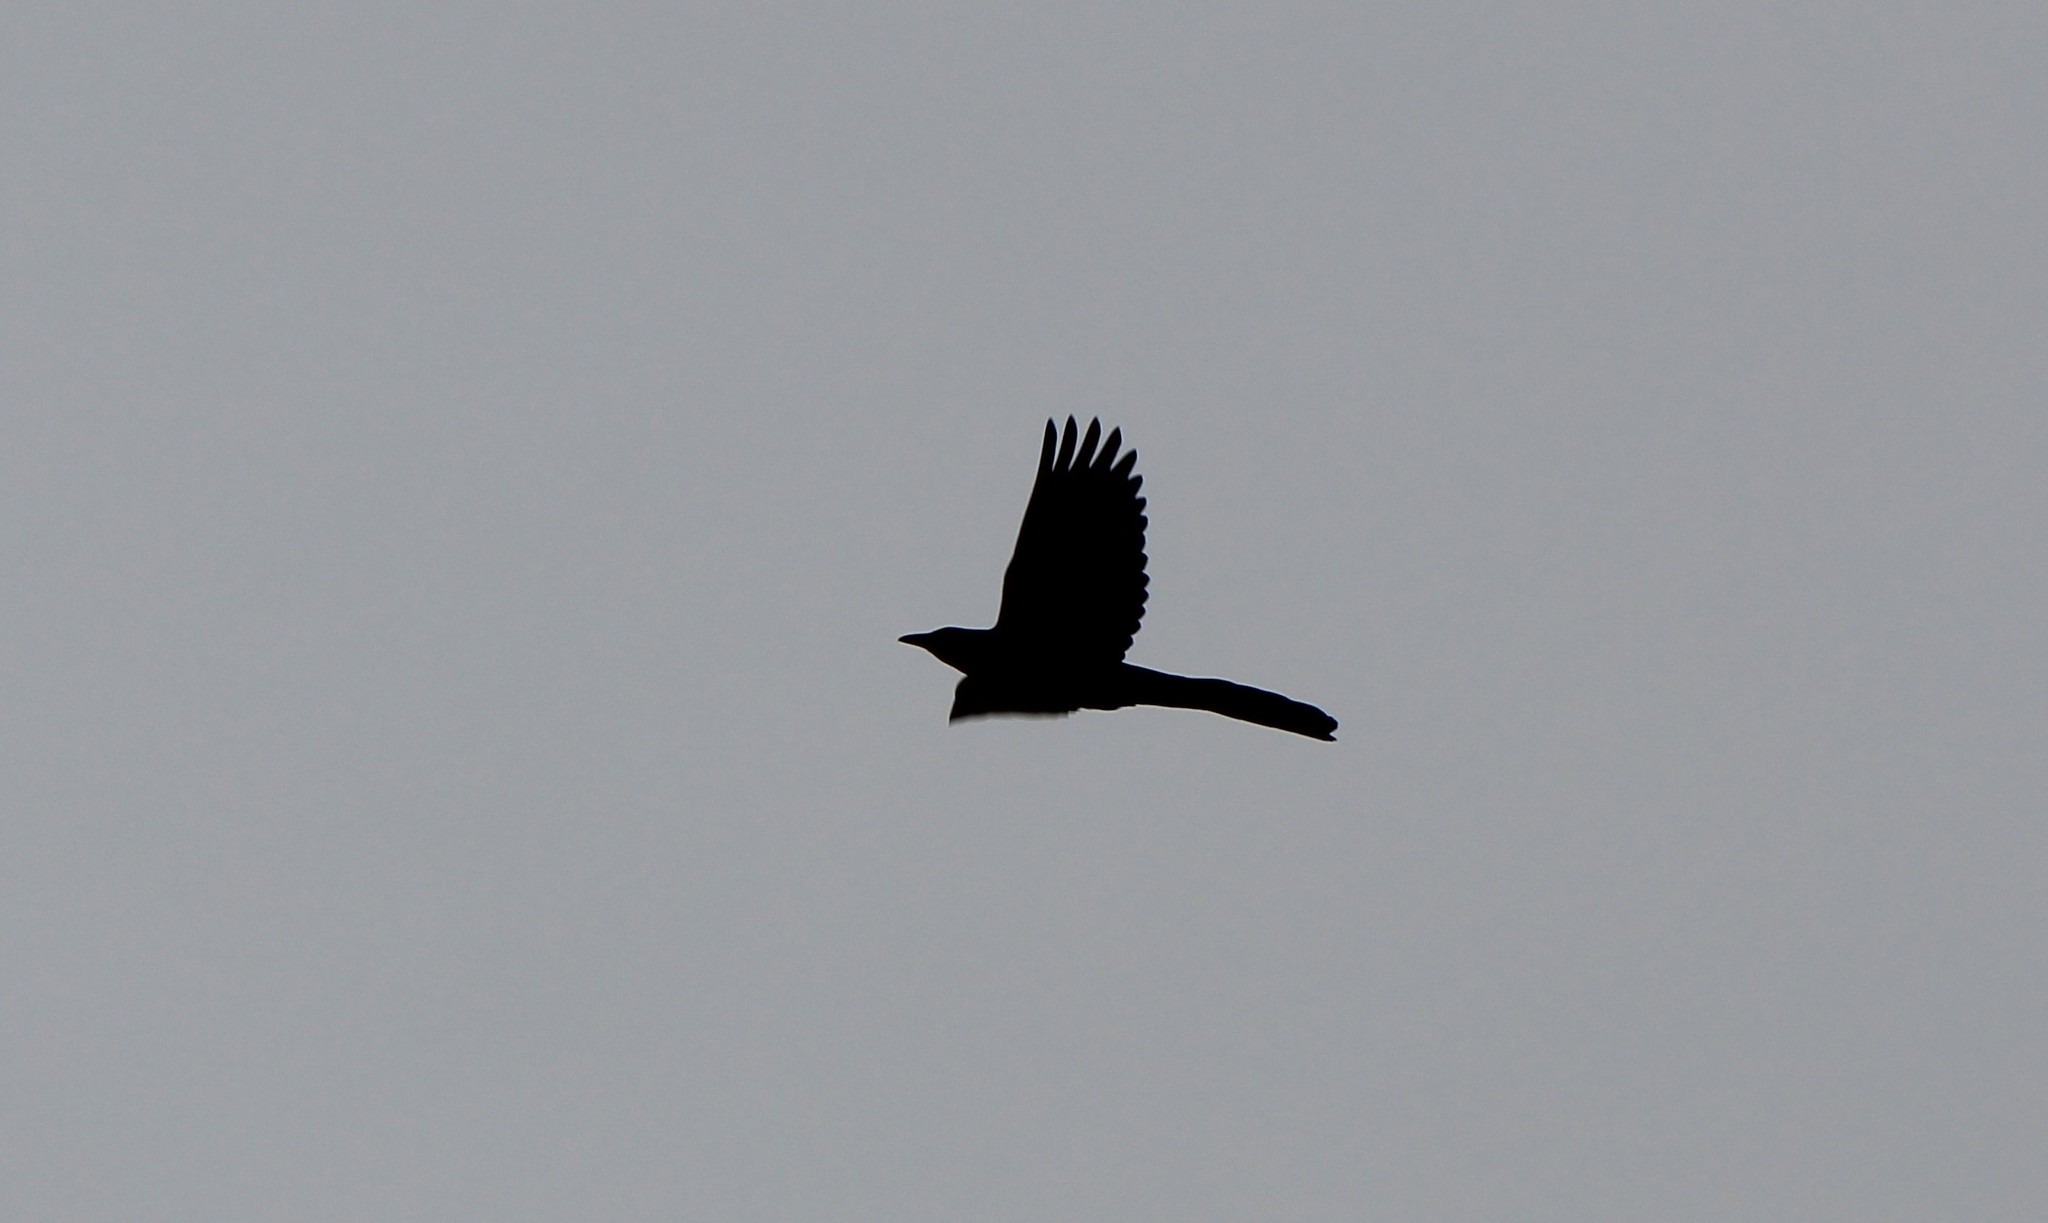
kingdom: Animalia
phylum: Chordata
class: Aves
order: Passeriformes
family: Icteridae
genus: Quiscalus
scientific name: Quiscalus mexicanus
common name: Great-tailed grackle
